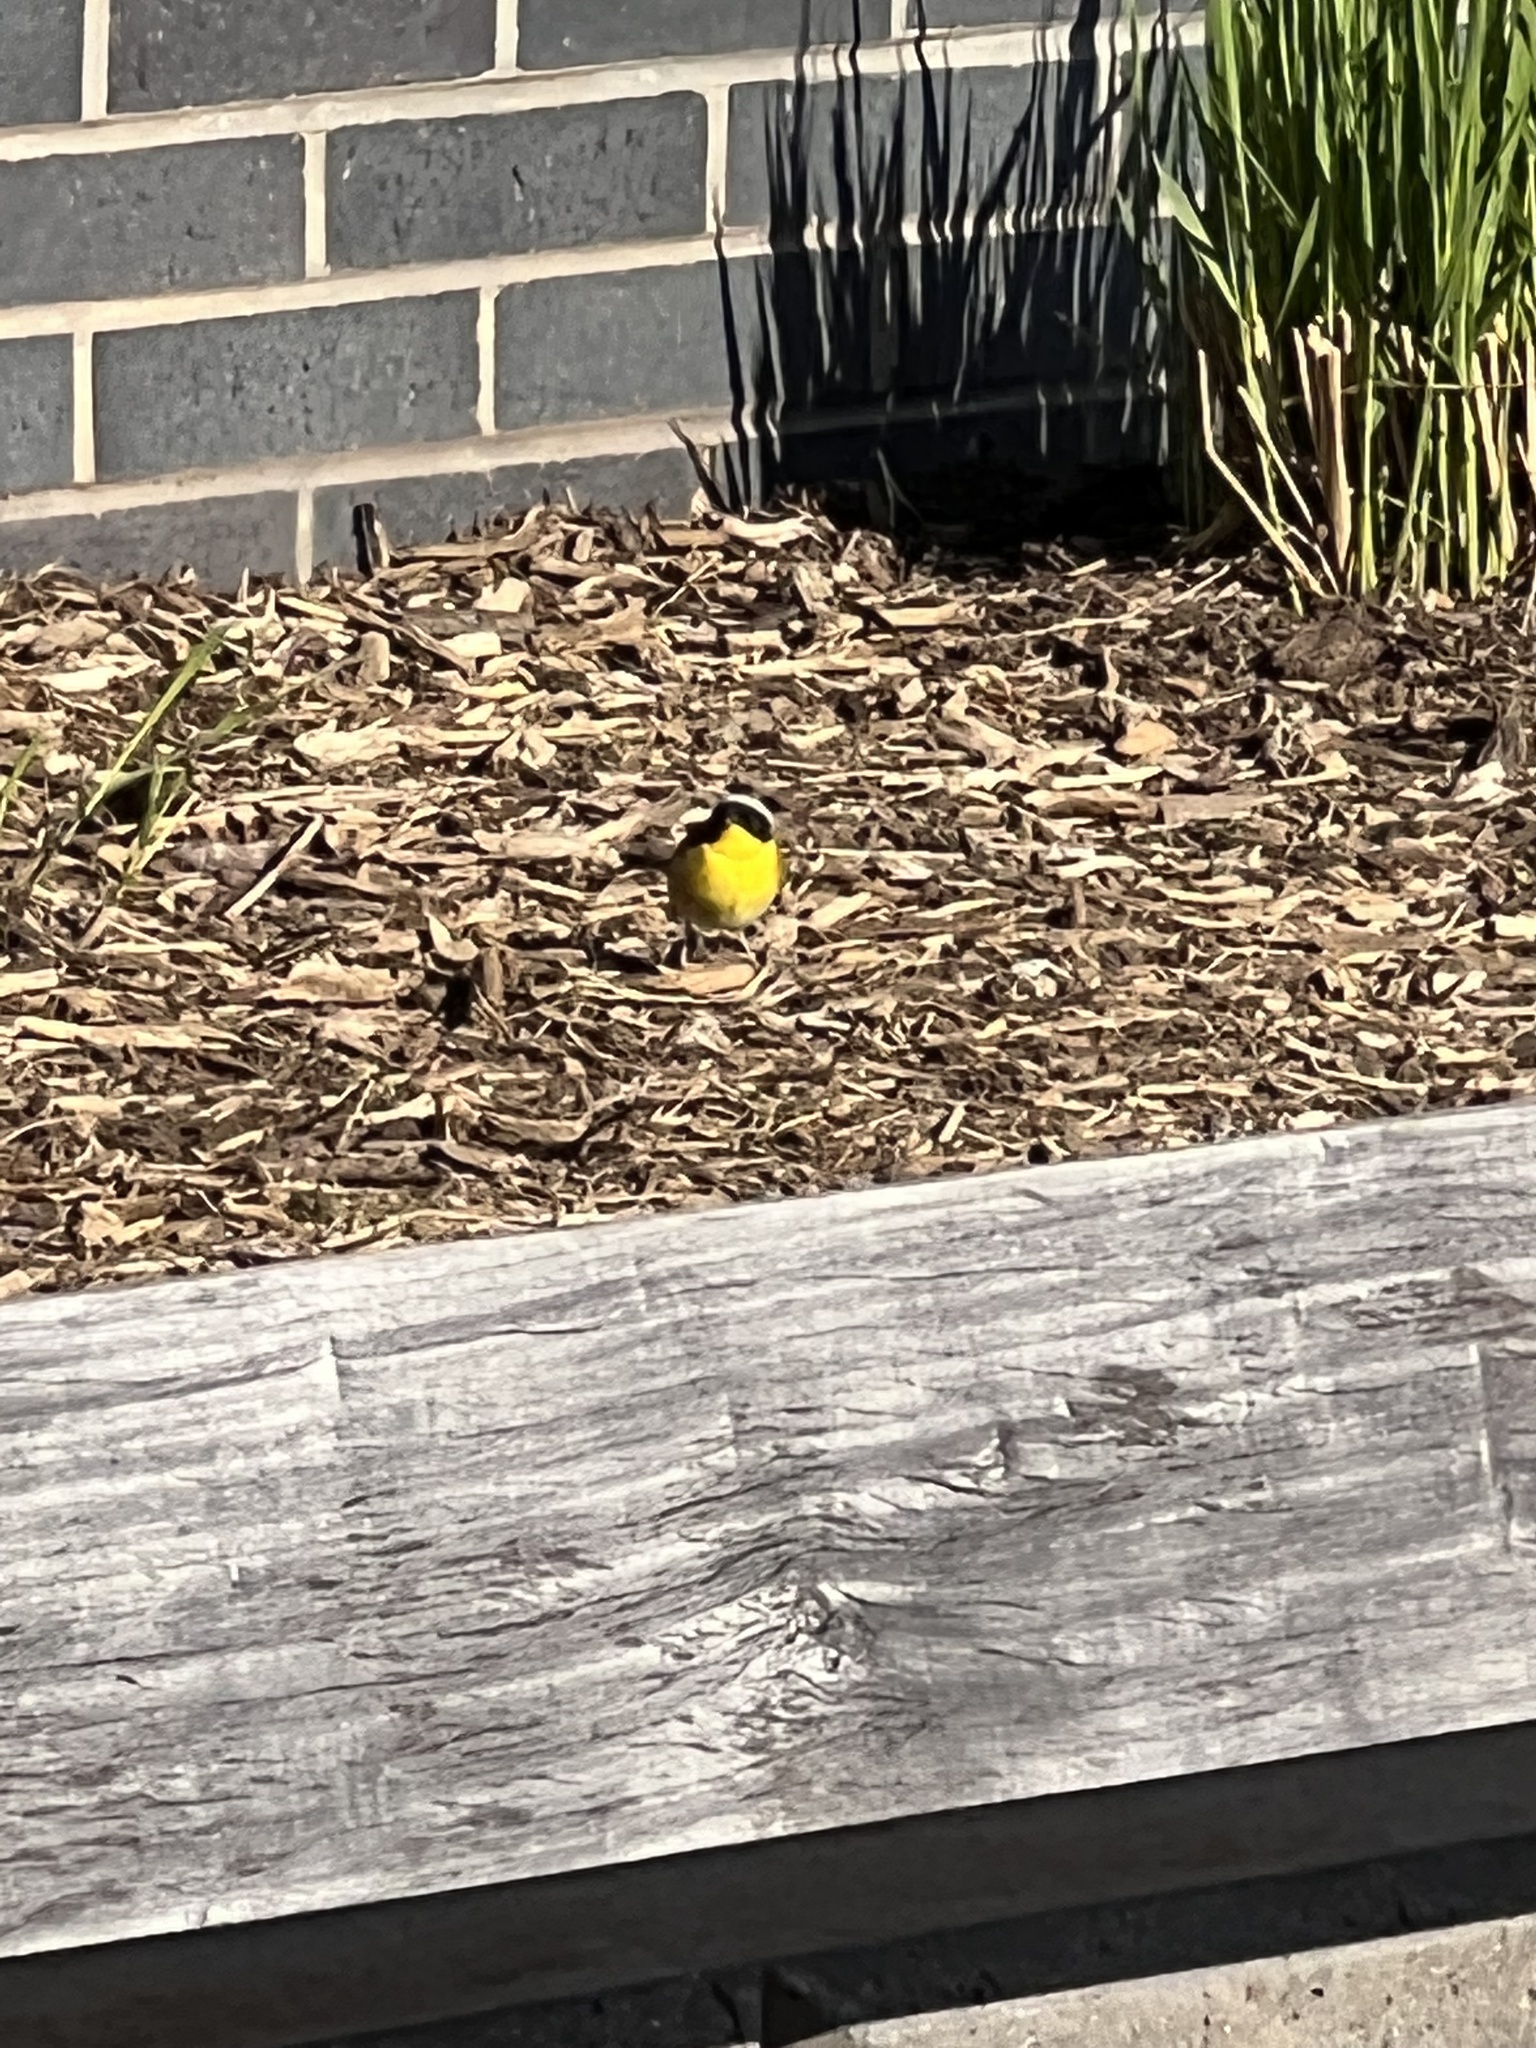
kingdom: Animalia
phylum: Chordata
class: Aves
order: Passeriformes
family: Parulidae
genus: Geothlypis
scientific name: Geothlypis trichas
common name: Common yellowthroat
